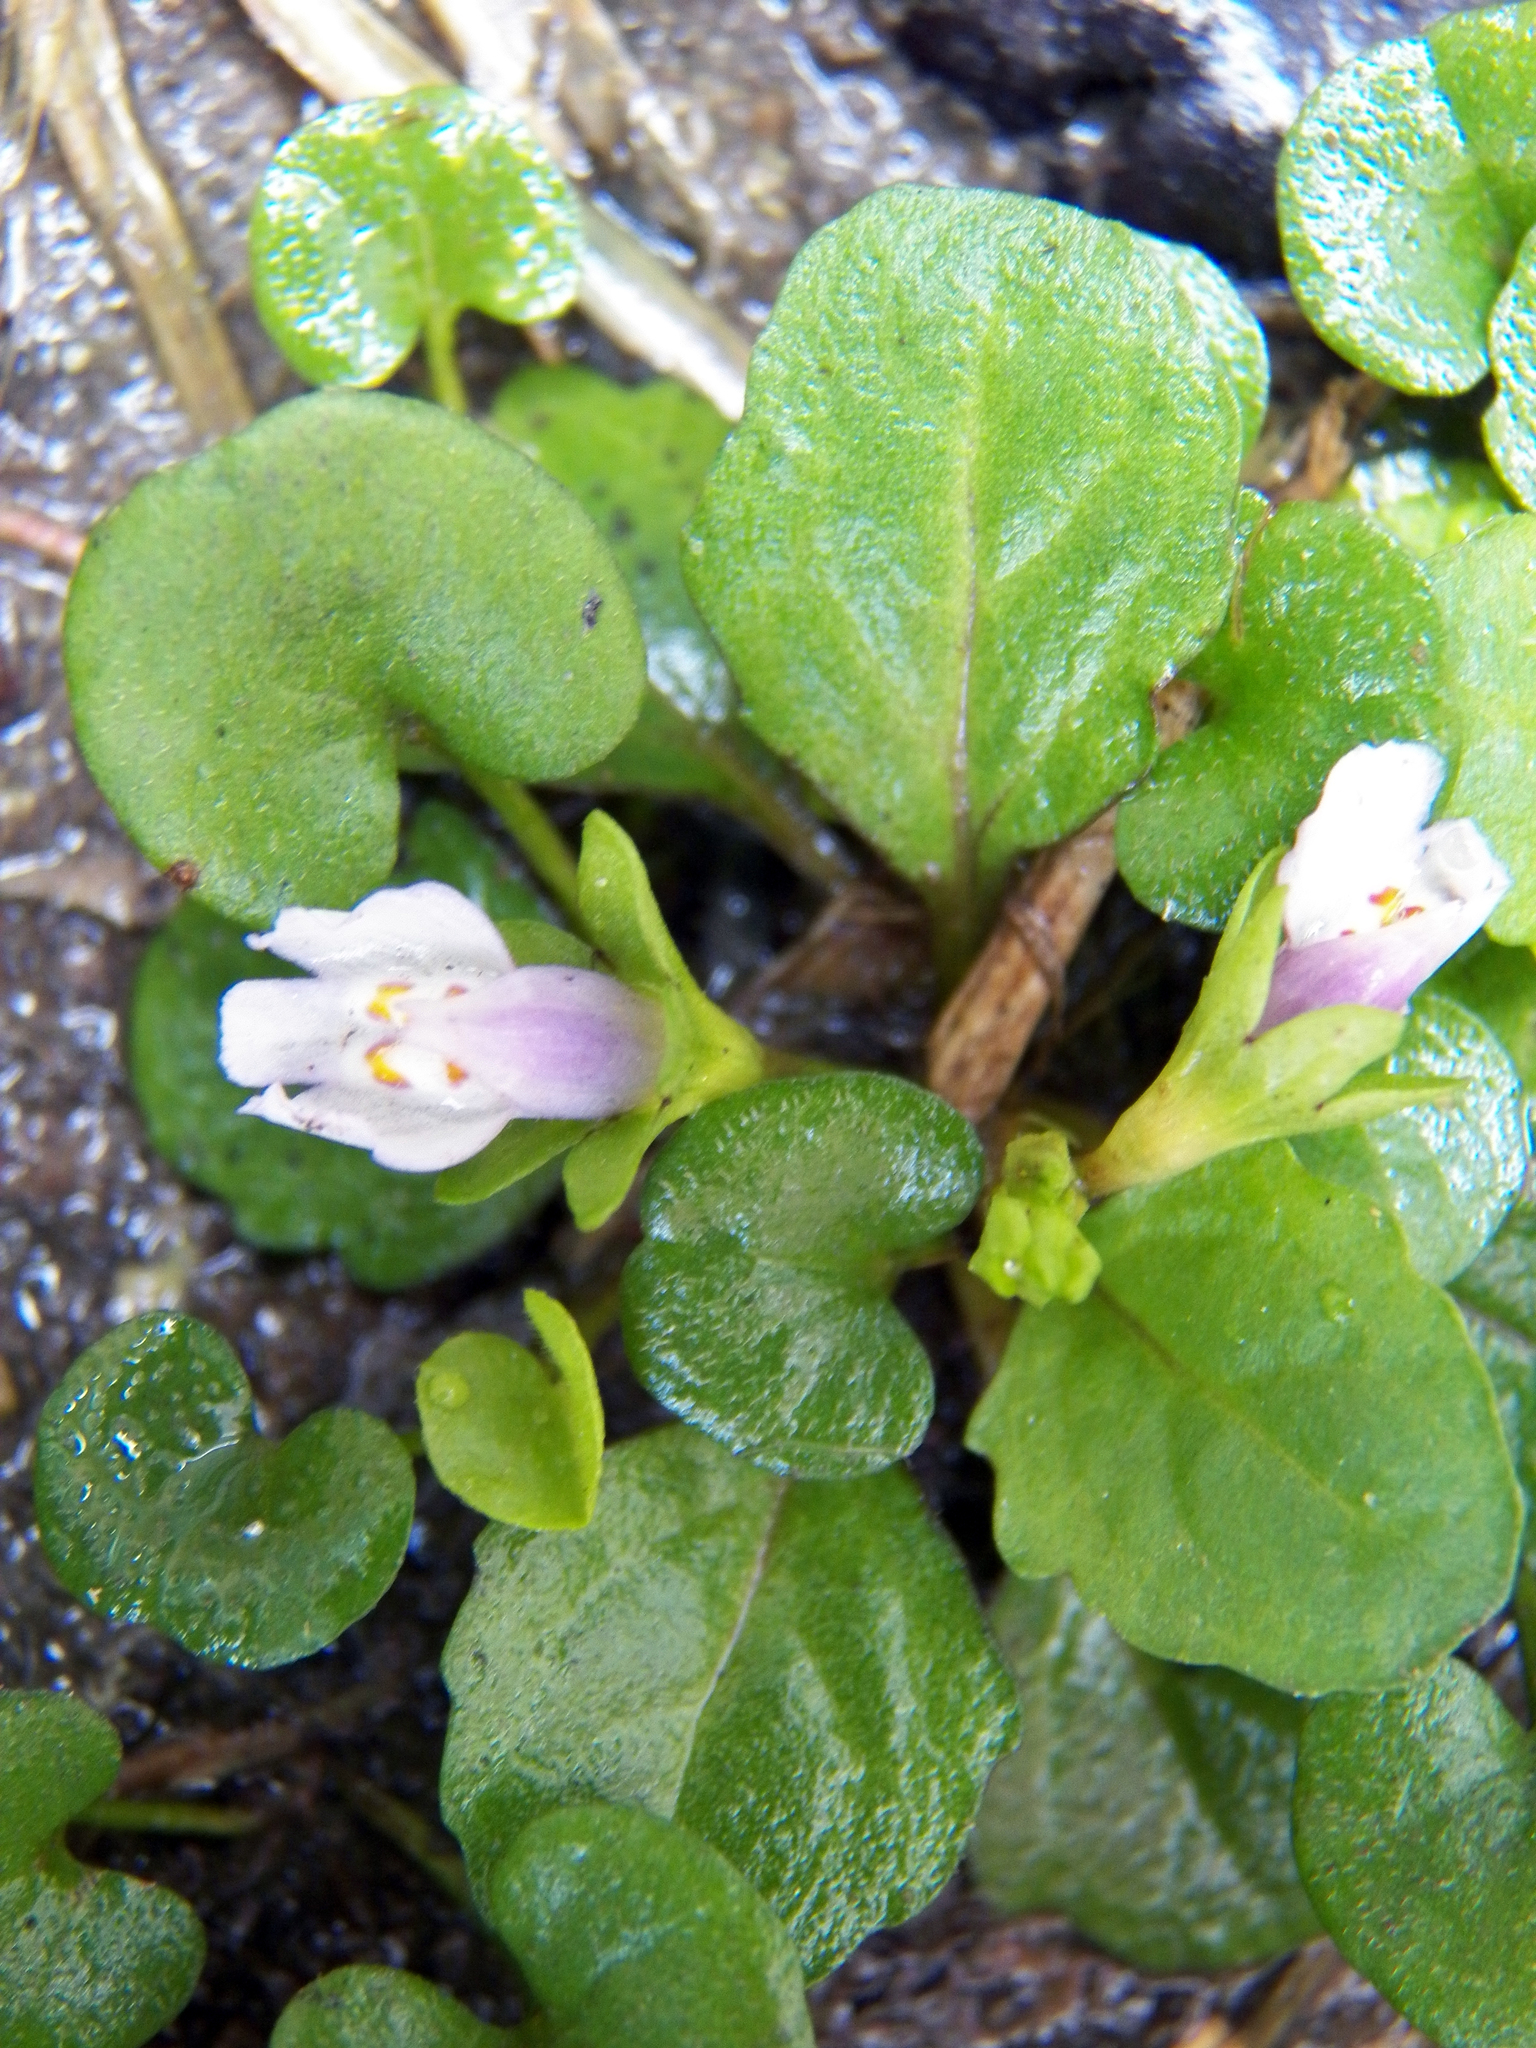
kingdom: Plantae
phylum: Tracheophyta
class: Magnoliopsida
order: Lamiales
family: Mazaceae
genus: Mazus
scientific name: Mazus pumilus
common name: Japanese mazus
